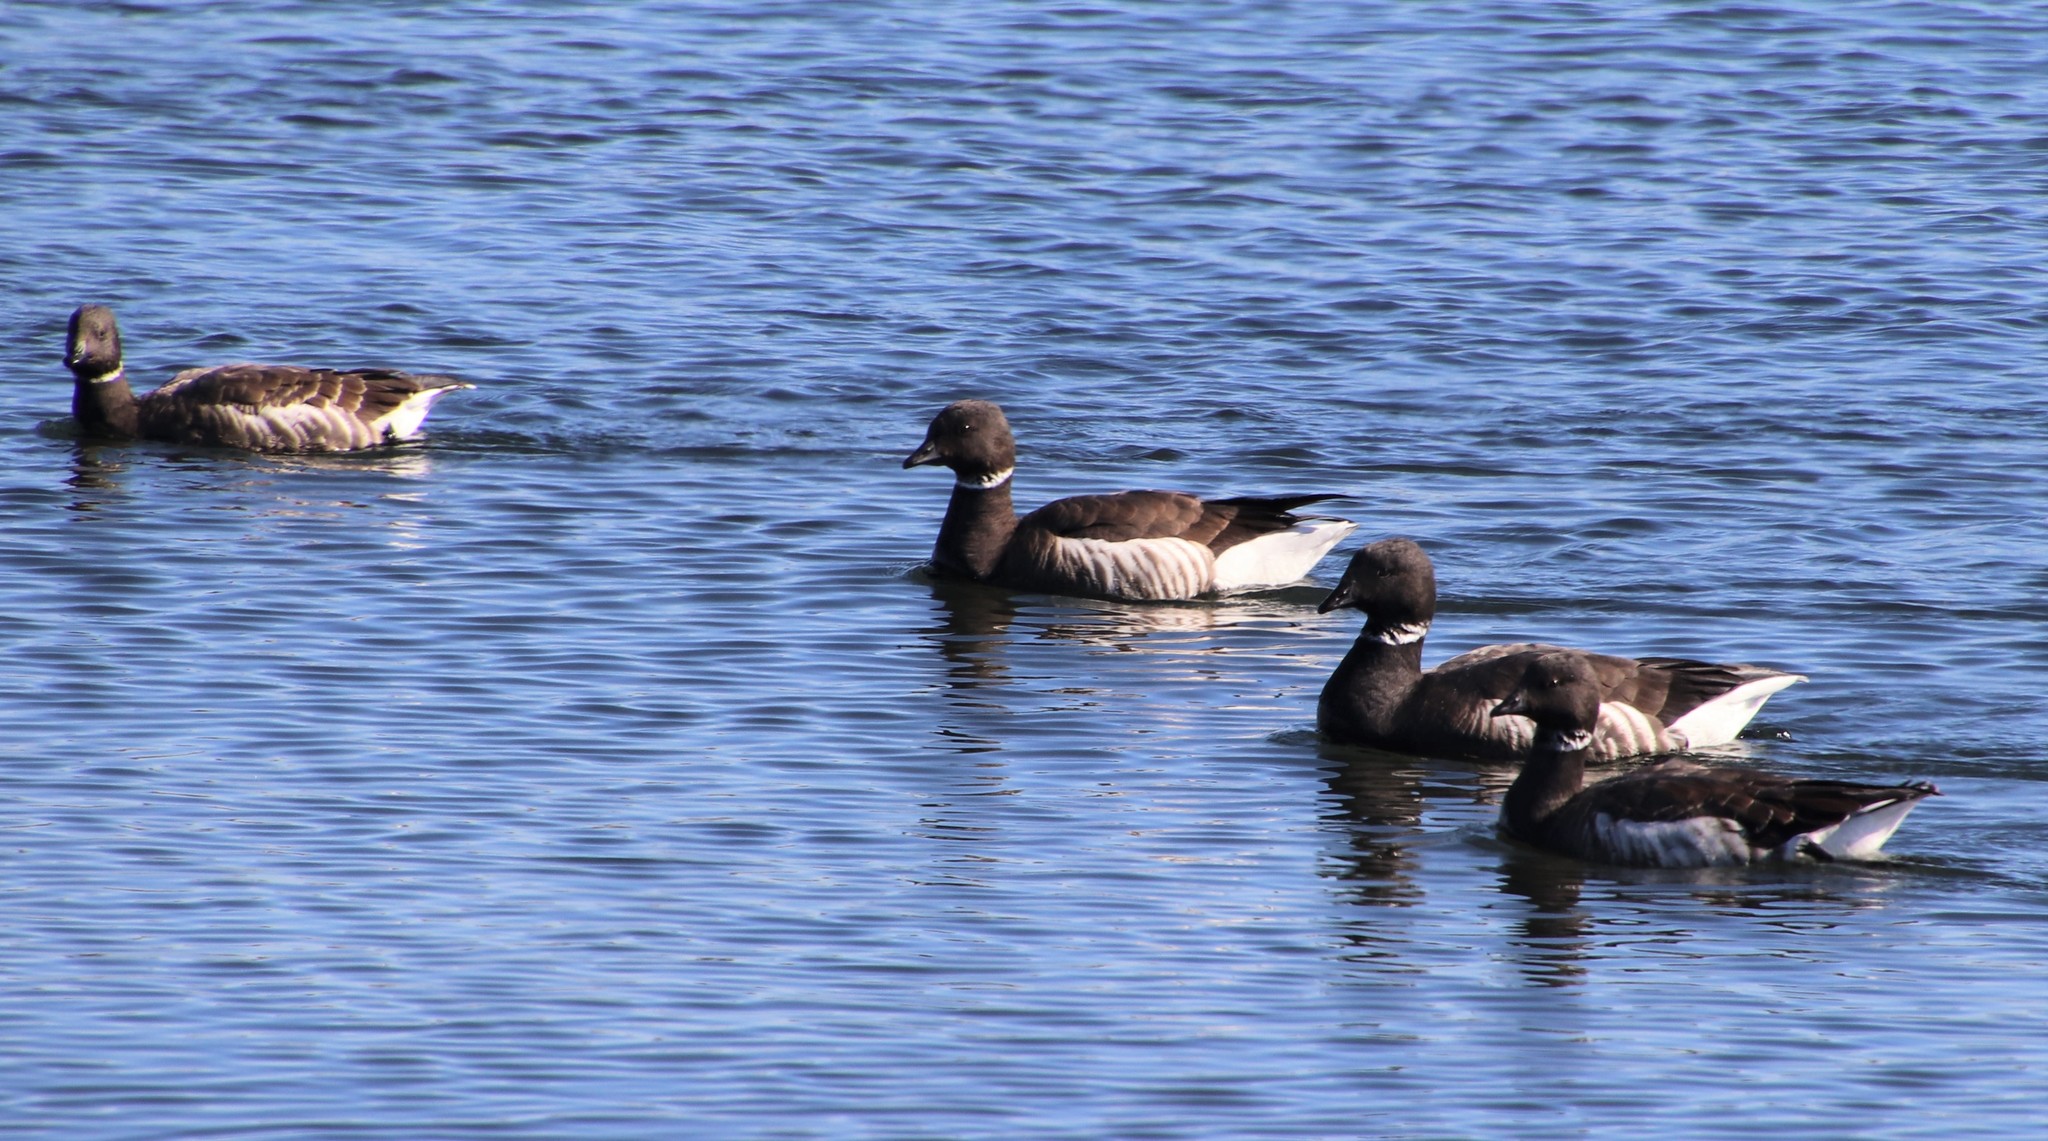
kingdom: Animalia
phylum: Chordata
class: Aves
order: Anseriformes
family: Anatidae
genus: Branta
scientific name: Branta bernicla
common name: Brant goose
